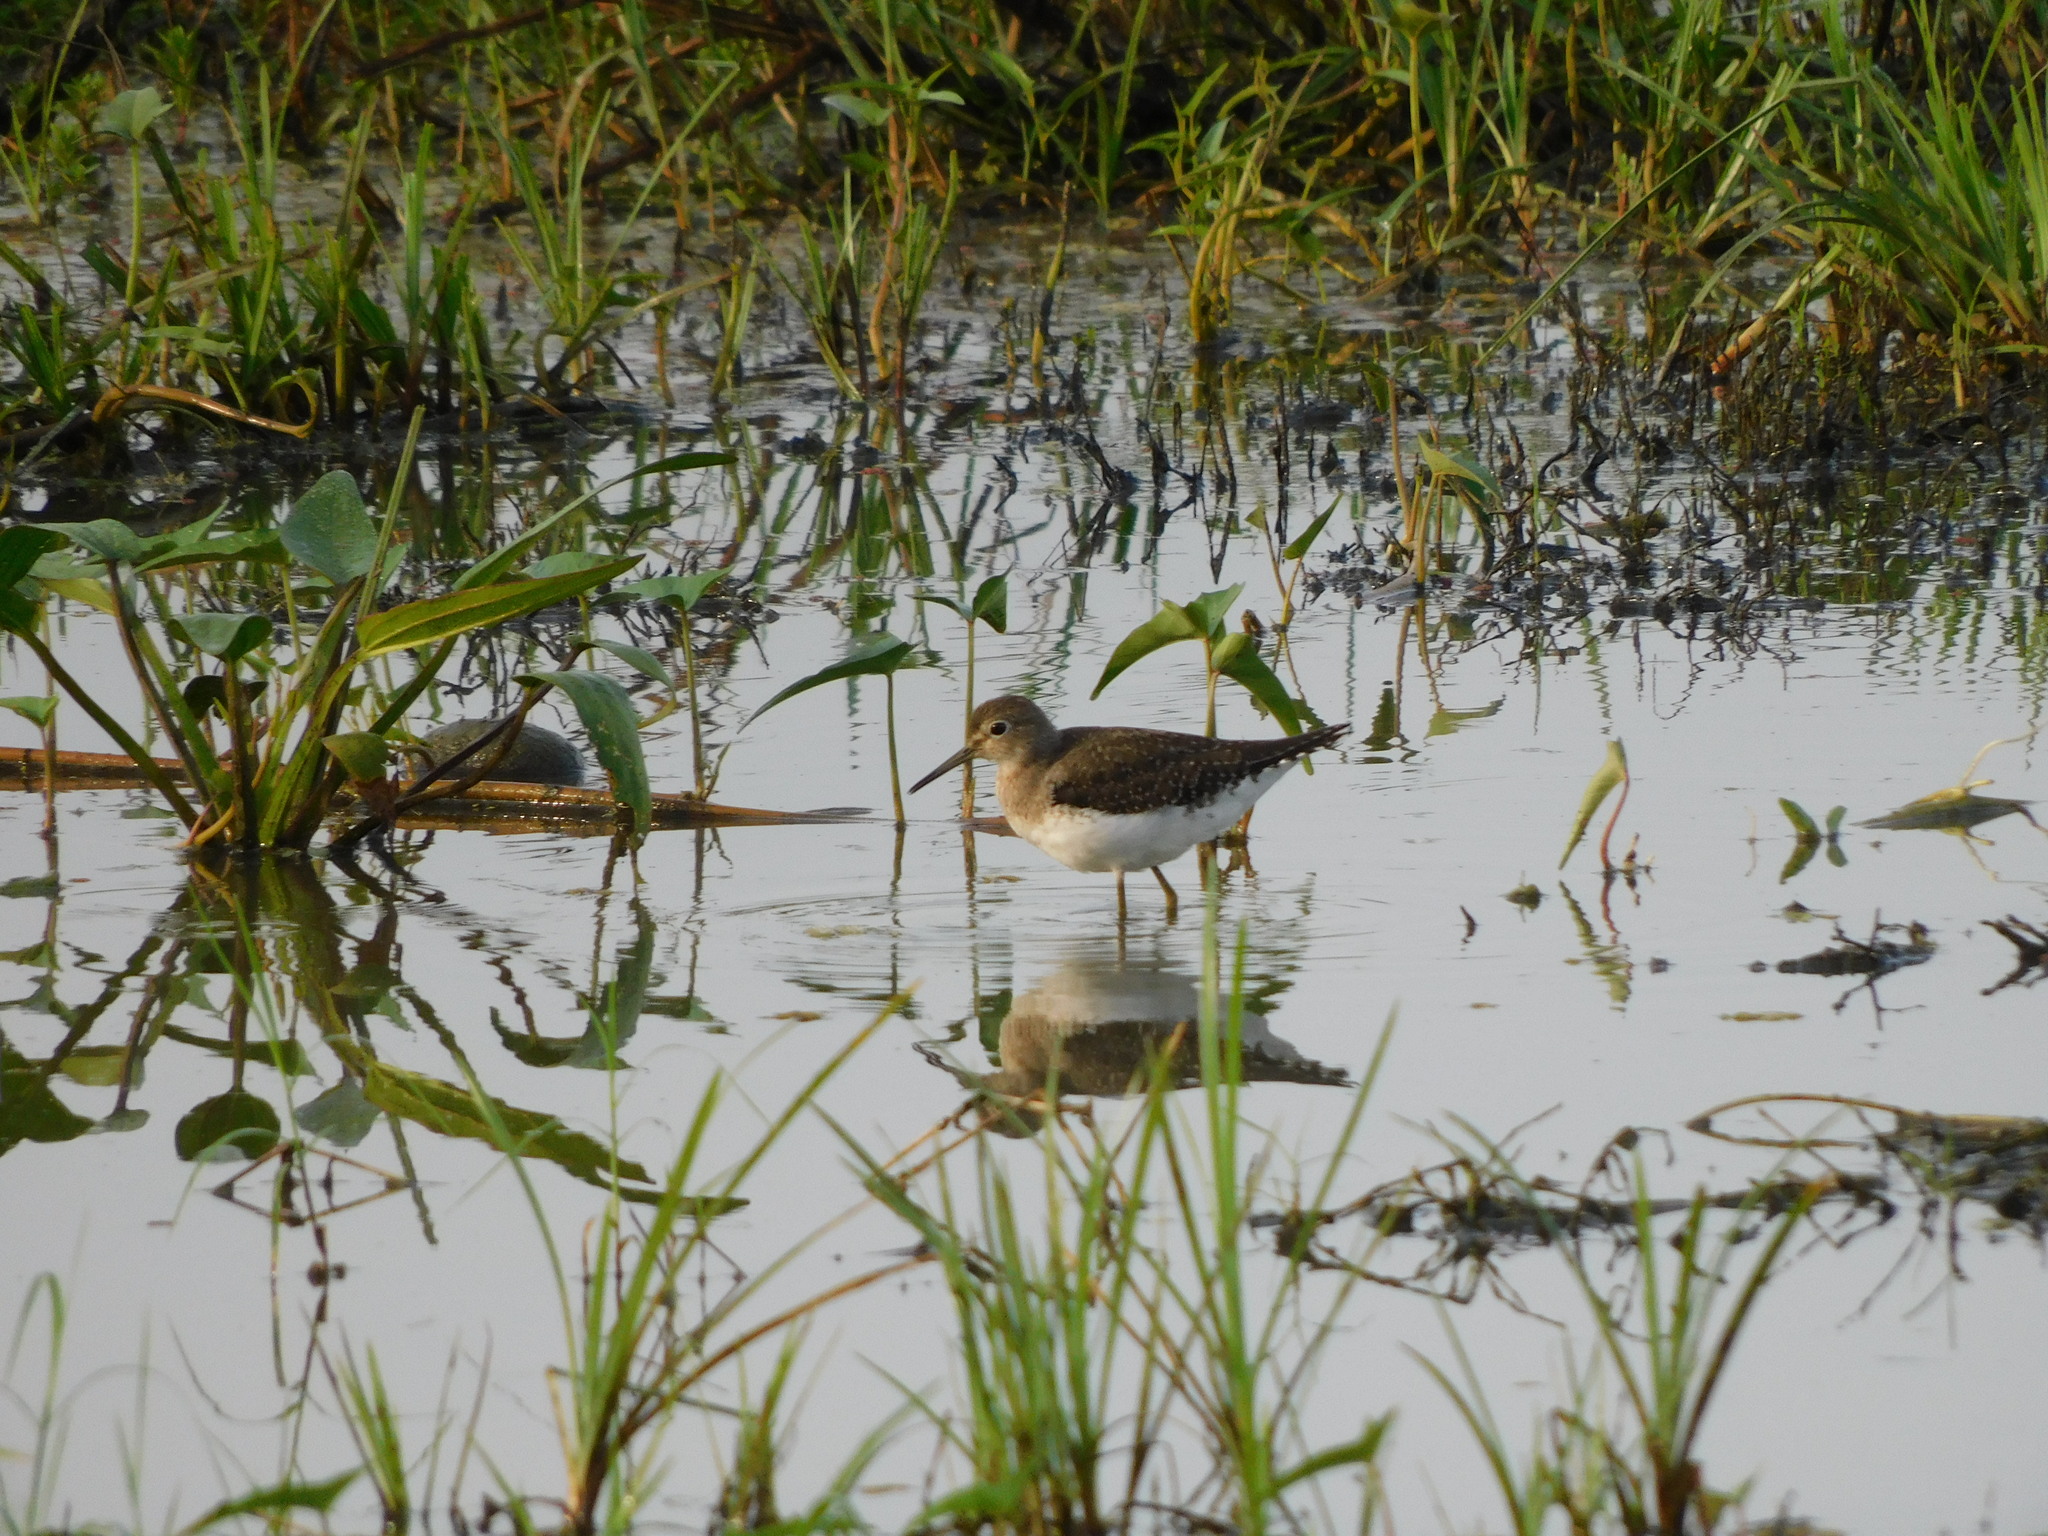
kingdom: Animalia
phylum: Chordata
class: Aves
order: Charadriiformes
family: Scolopacidae
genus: Tringa
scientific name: Tringa solitaria
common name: Solitary sandpiper
